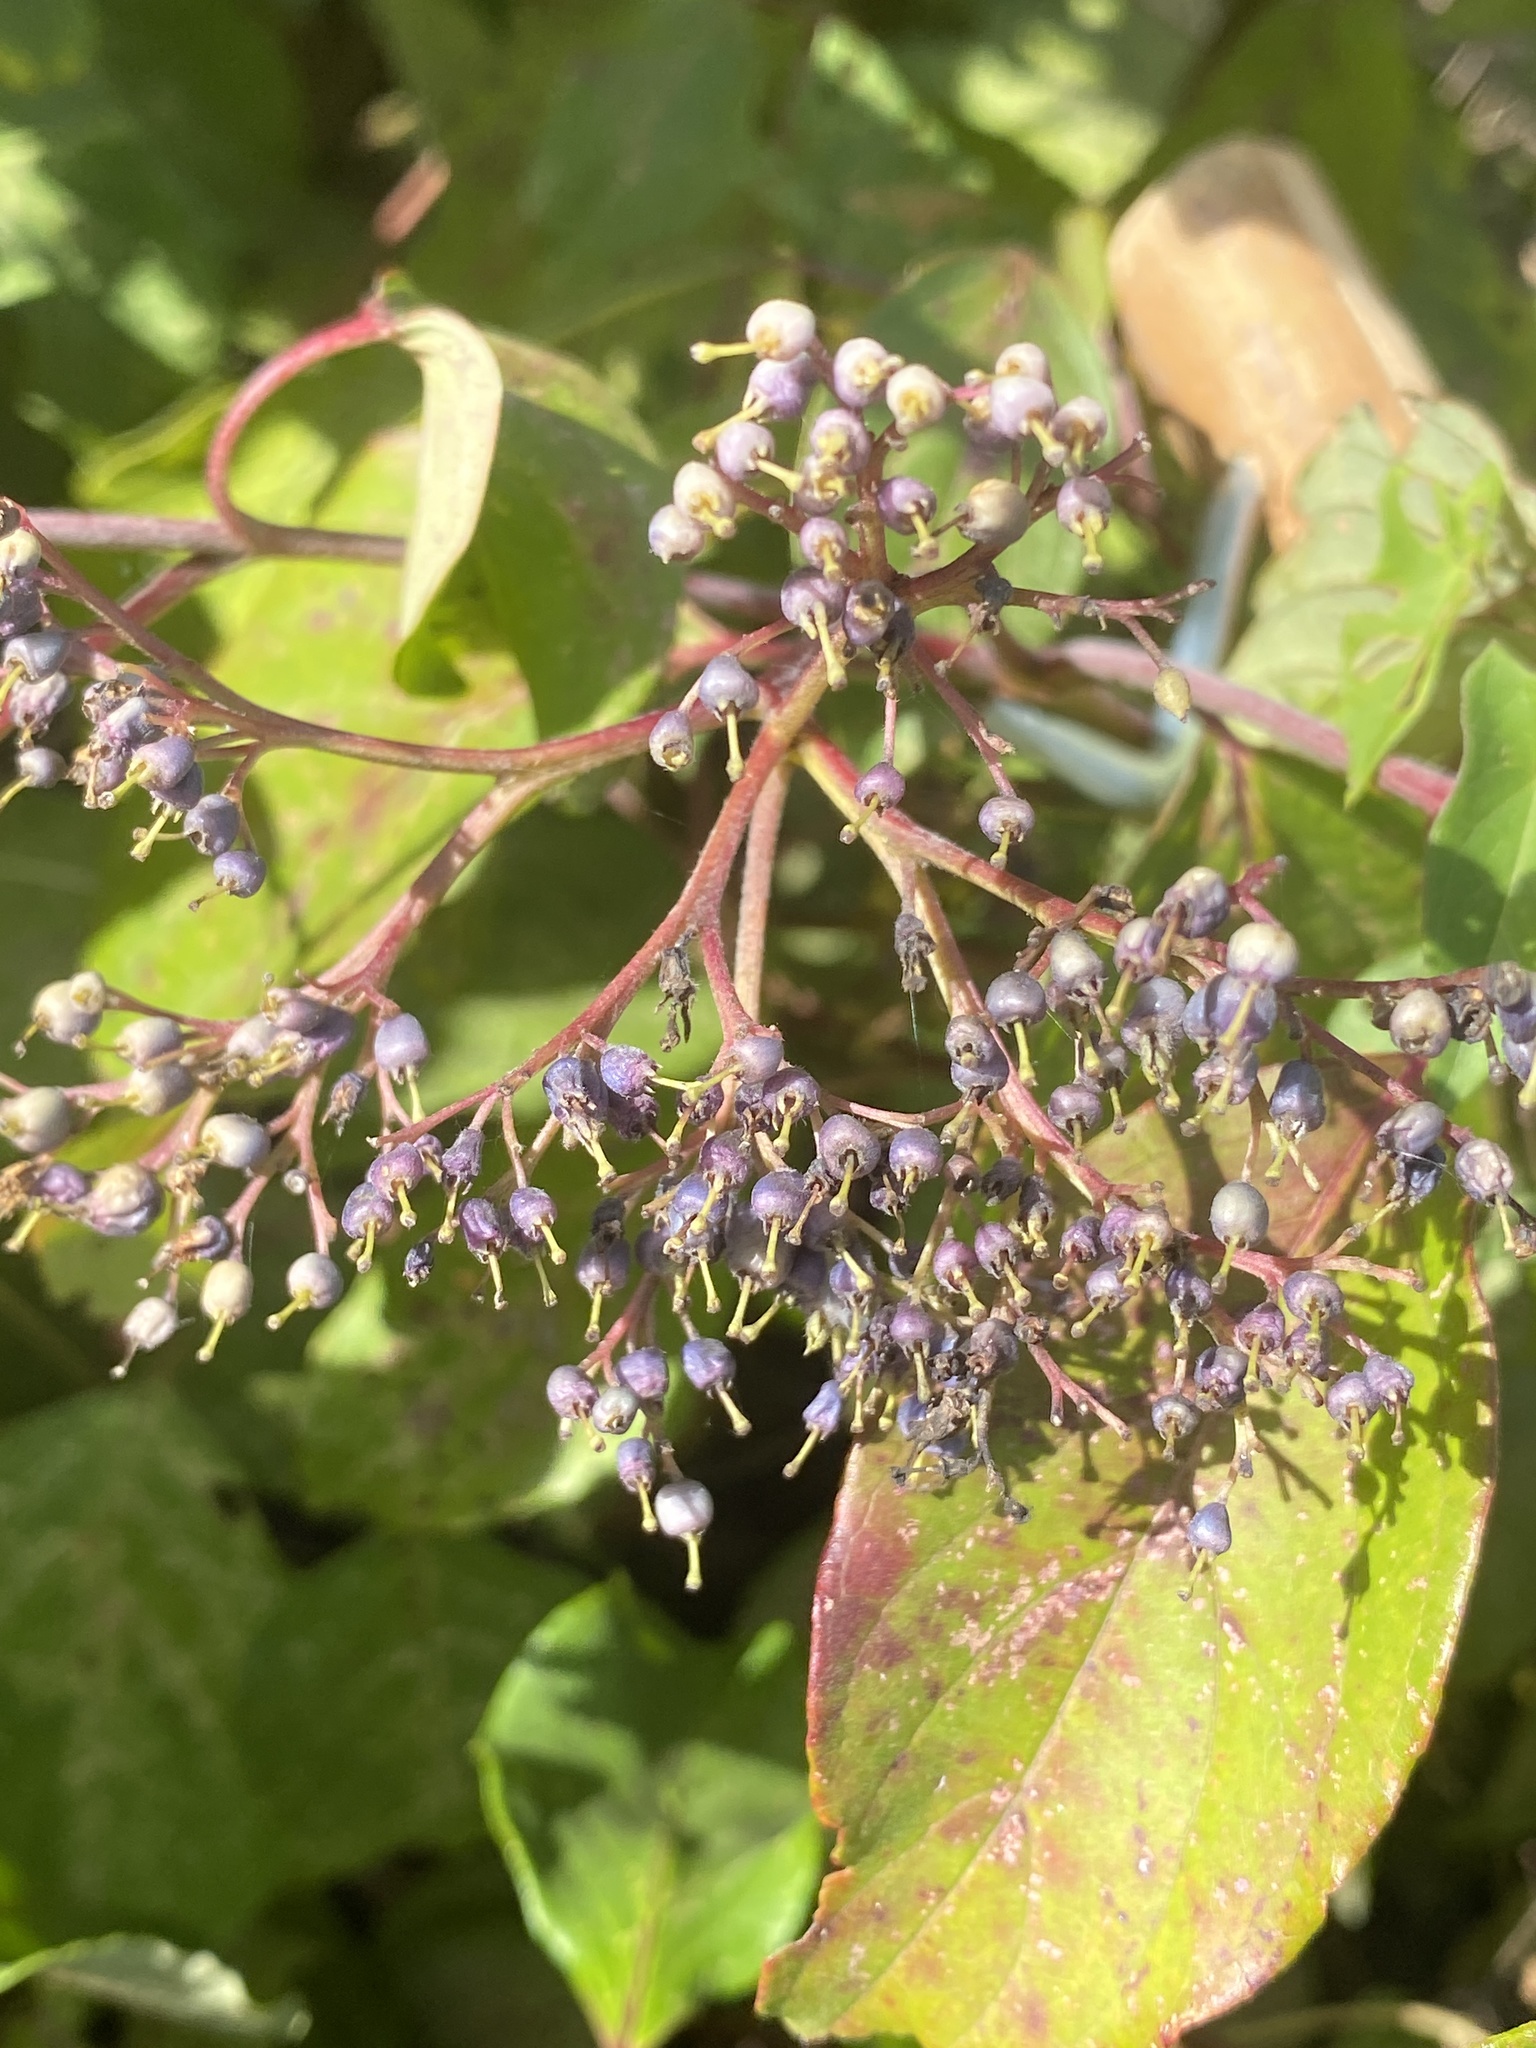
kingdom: Plantae
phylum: Tracheophyta
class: Magnoliopsida
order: Cornales
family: Cornaceae
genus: Cornus
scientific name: Cornus amomum
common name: Silky dogwood
